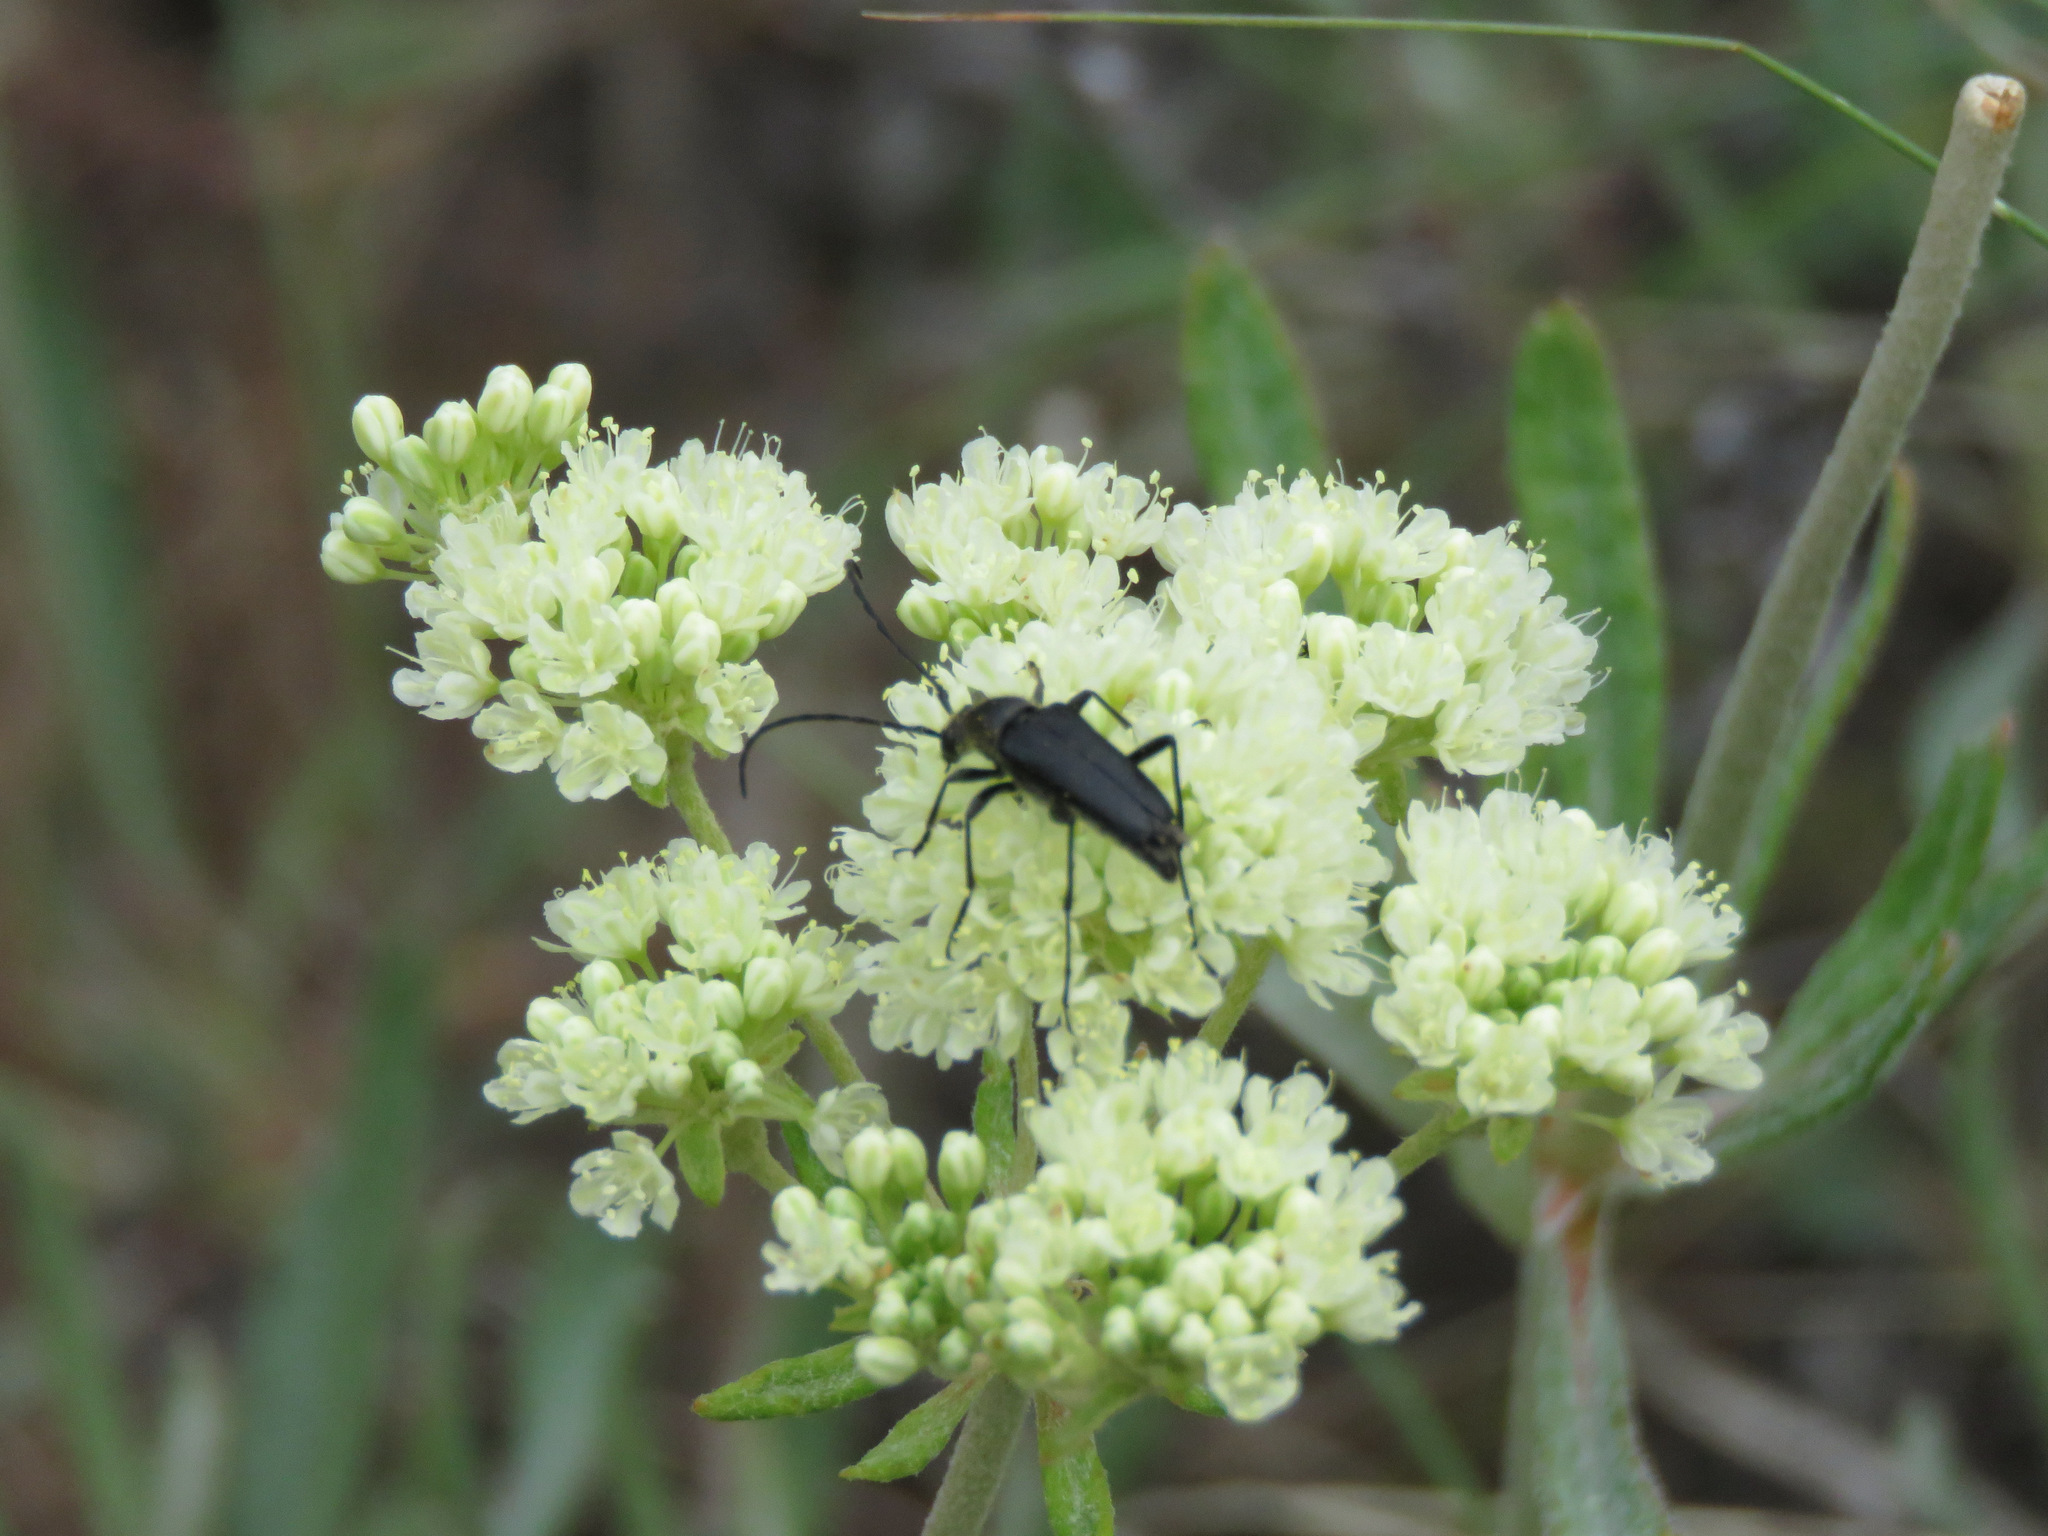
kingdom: Animalia
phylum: Arthropoda
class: Insecta
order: Coleoptera
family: Cerambycidae
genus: Anastrangalia
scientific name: Anastrangalia laetifica
